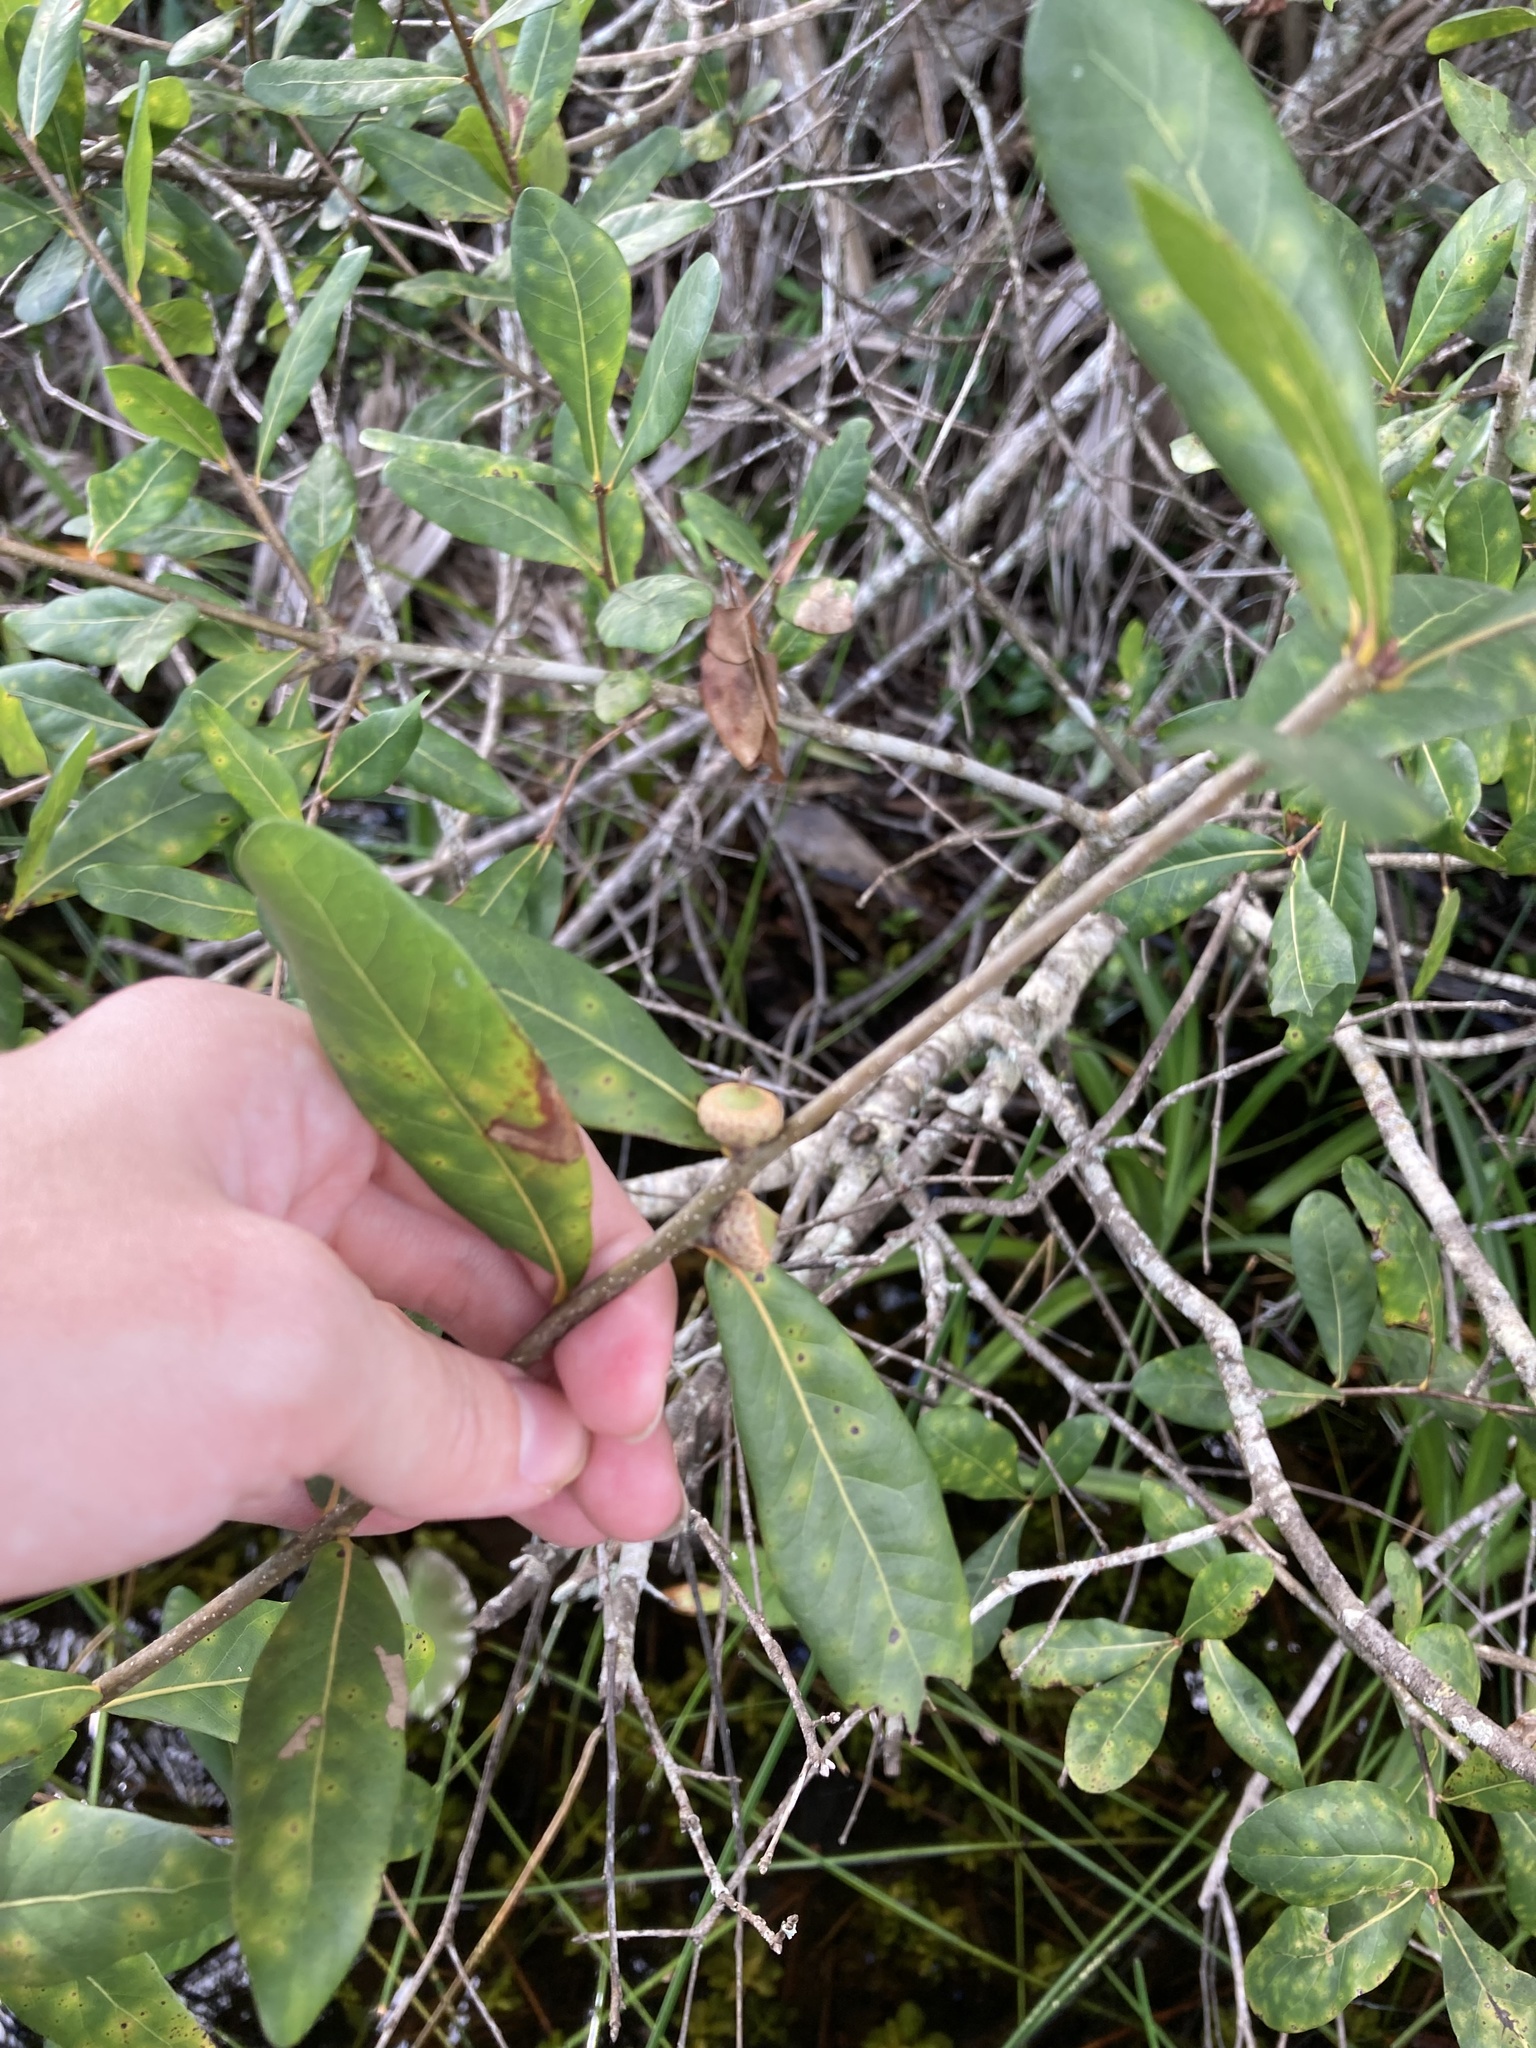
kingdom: Plantae
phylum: Tracheophyta
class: Magnoliopsida
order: Fagales
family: Fagaceae
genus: Quercus
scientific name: Quercus laurifolia
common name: Swamp laurel oak
